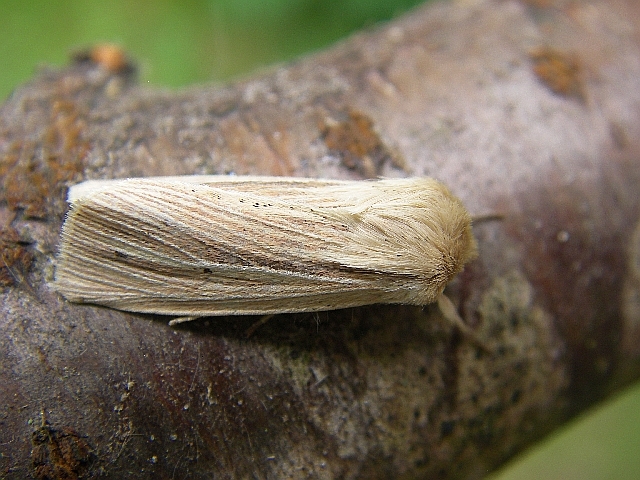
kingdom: Animalia
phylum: Arthropoda
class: Insecta
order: Lepidoptera
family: Noctuidae
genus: Mythimna
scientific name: Mythimna impura
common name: Smoky wainscot
